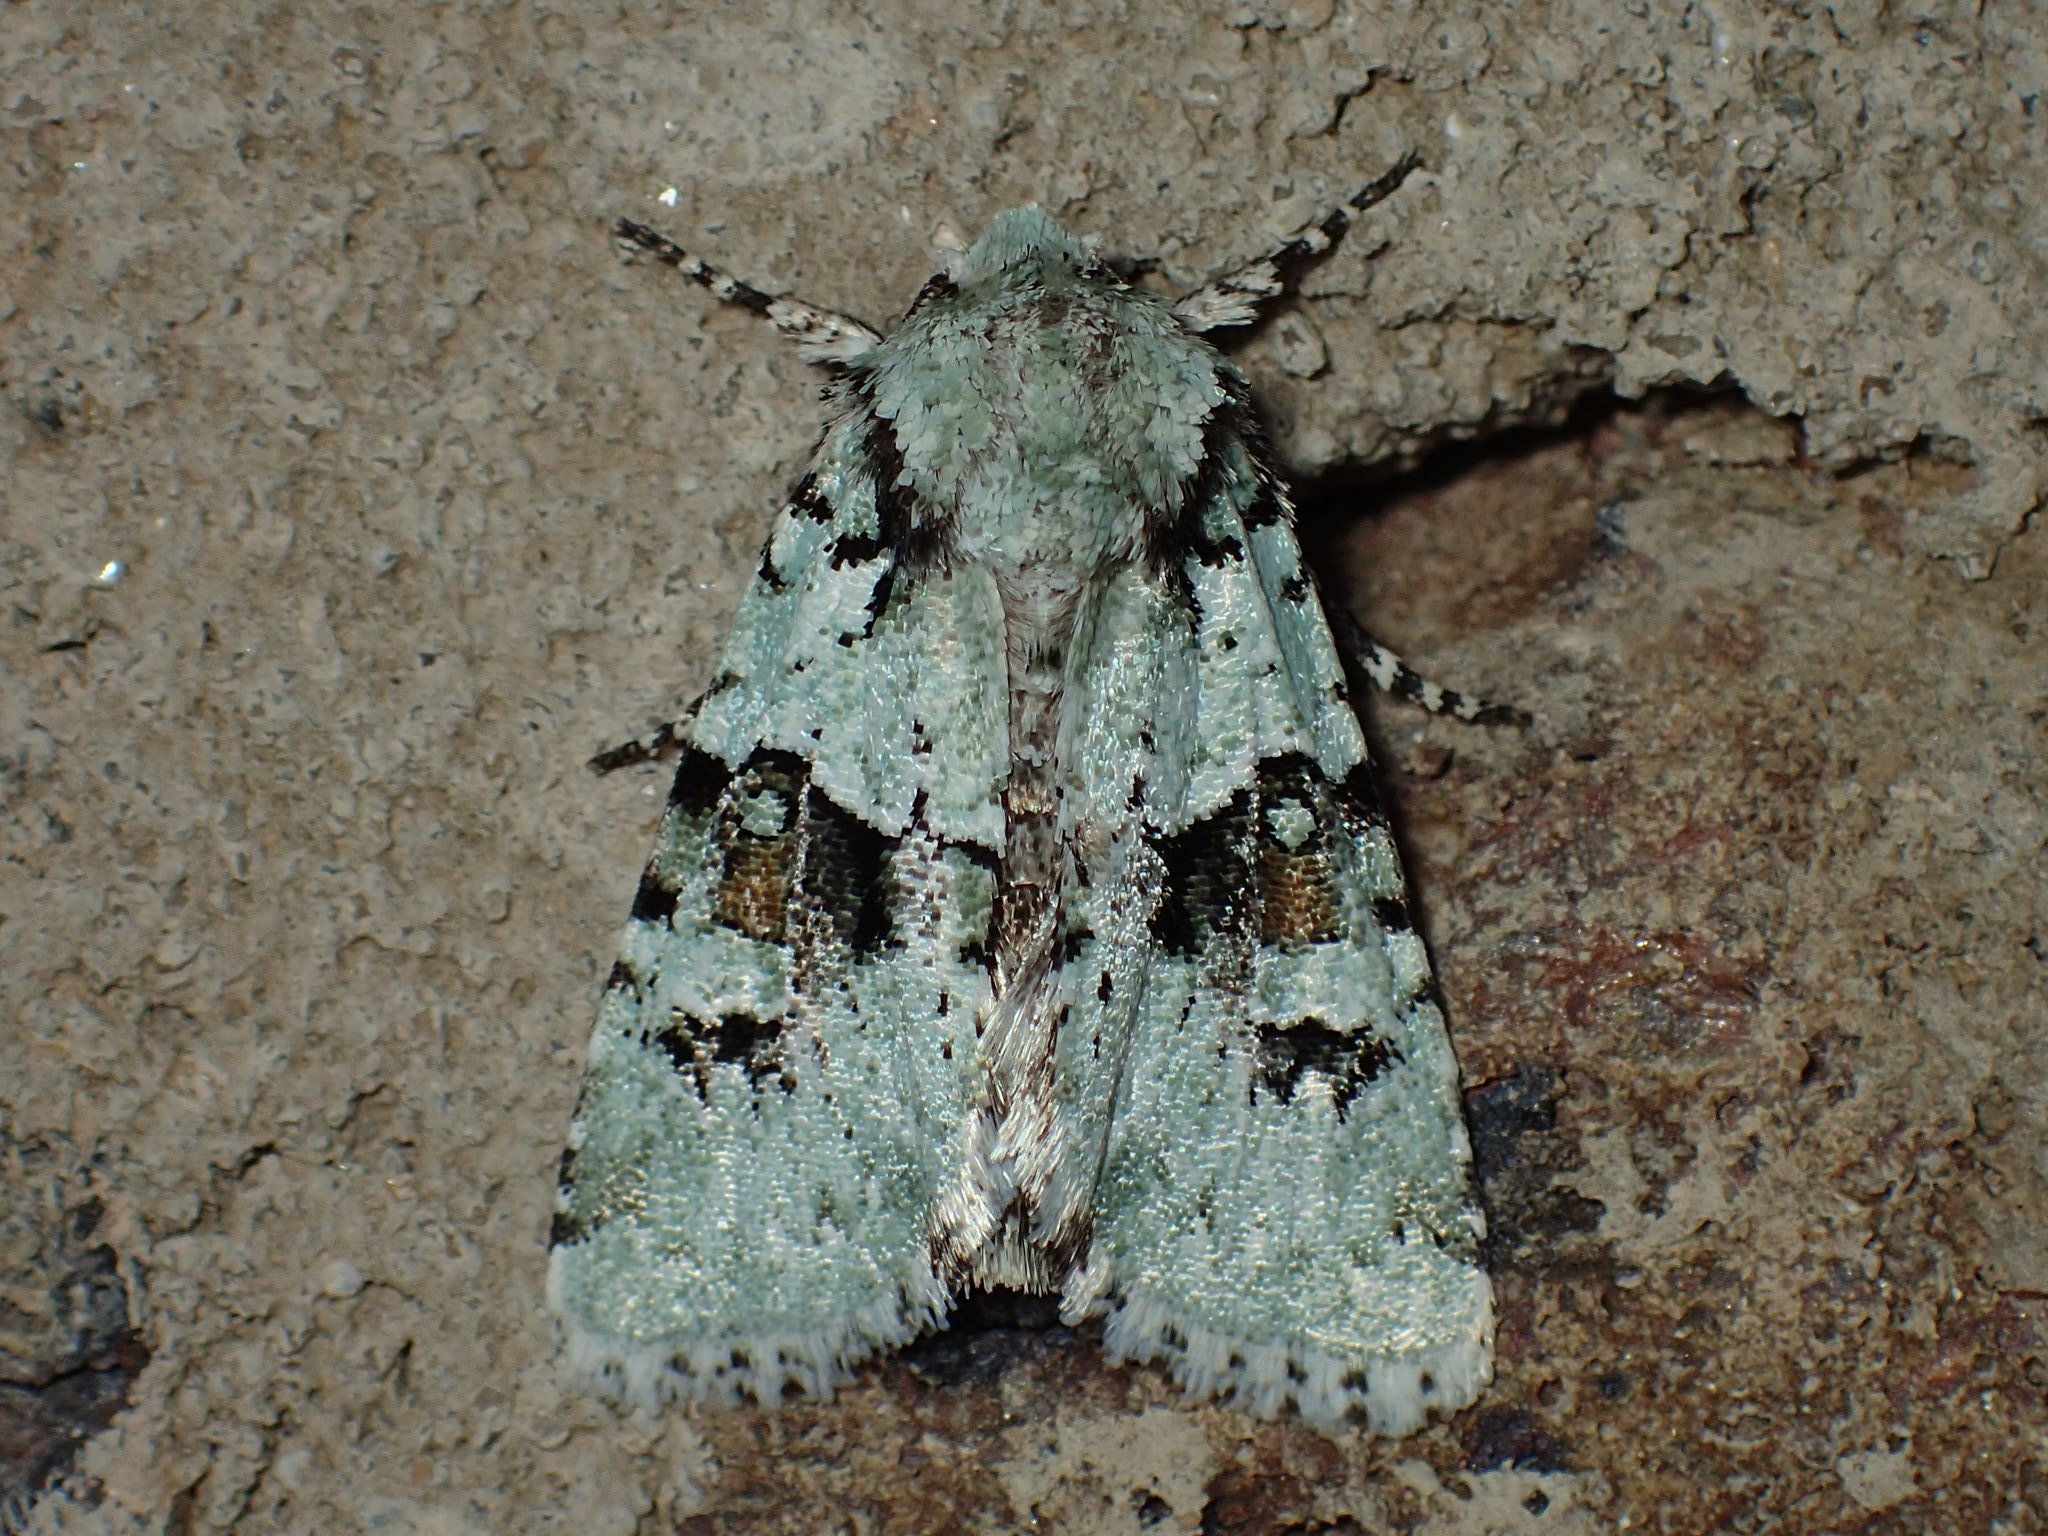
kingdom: Animalia
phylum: Arthropoda
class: Insecta
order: Lepidoptera
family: Noctuidae
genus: Lacinipolia
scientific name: Lacinipolia implicata
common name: Implicit arches
